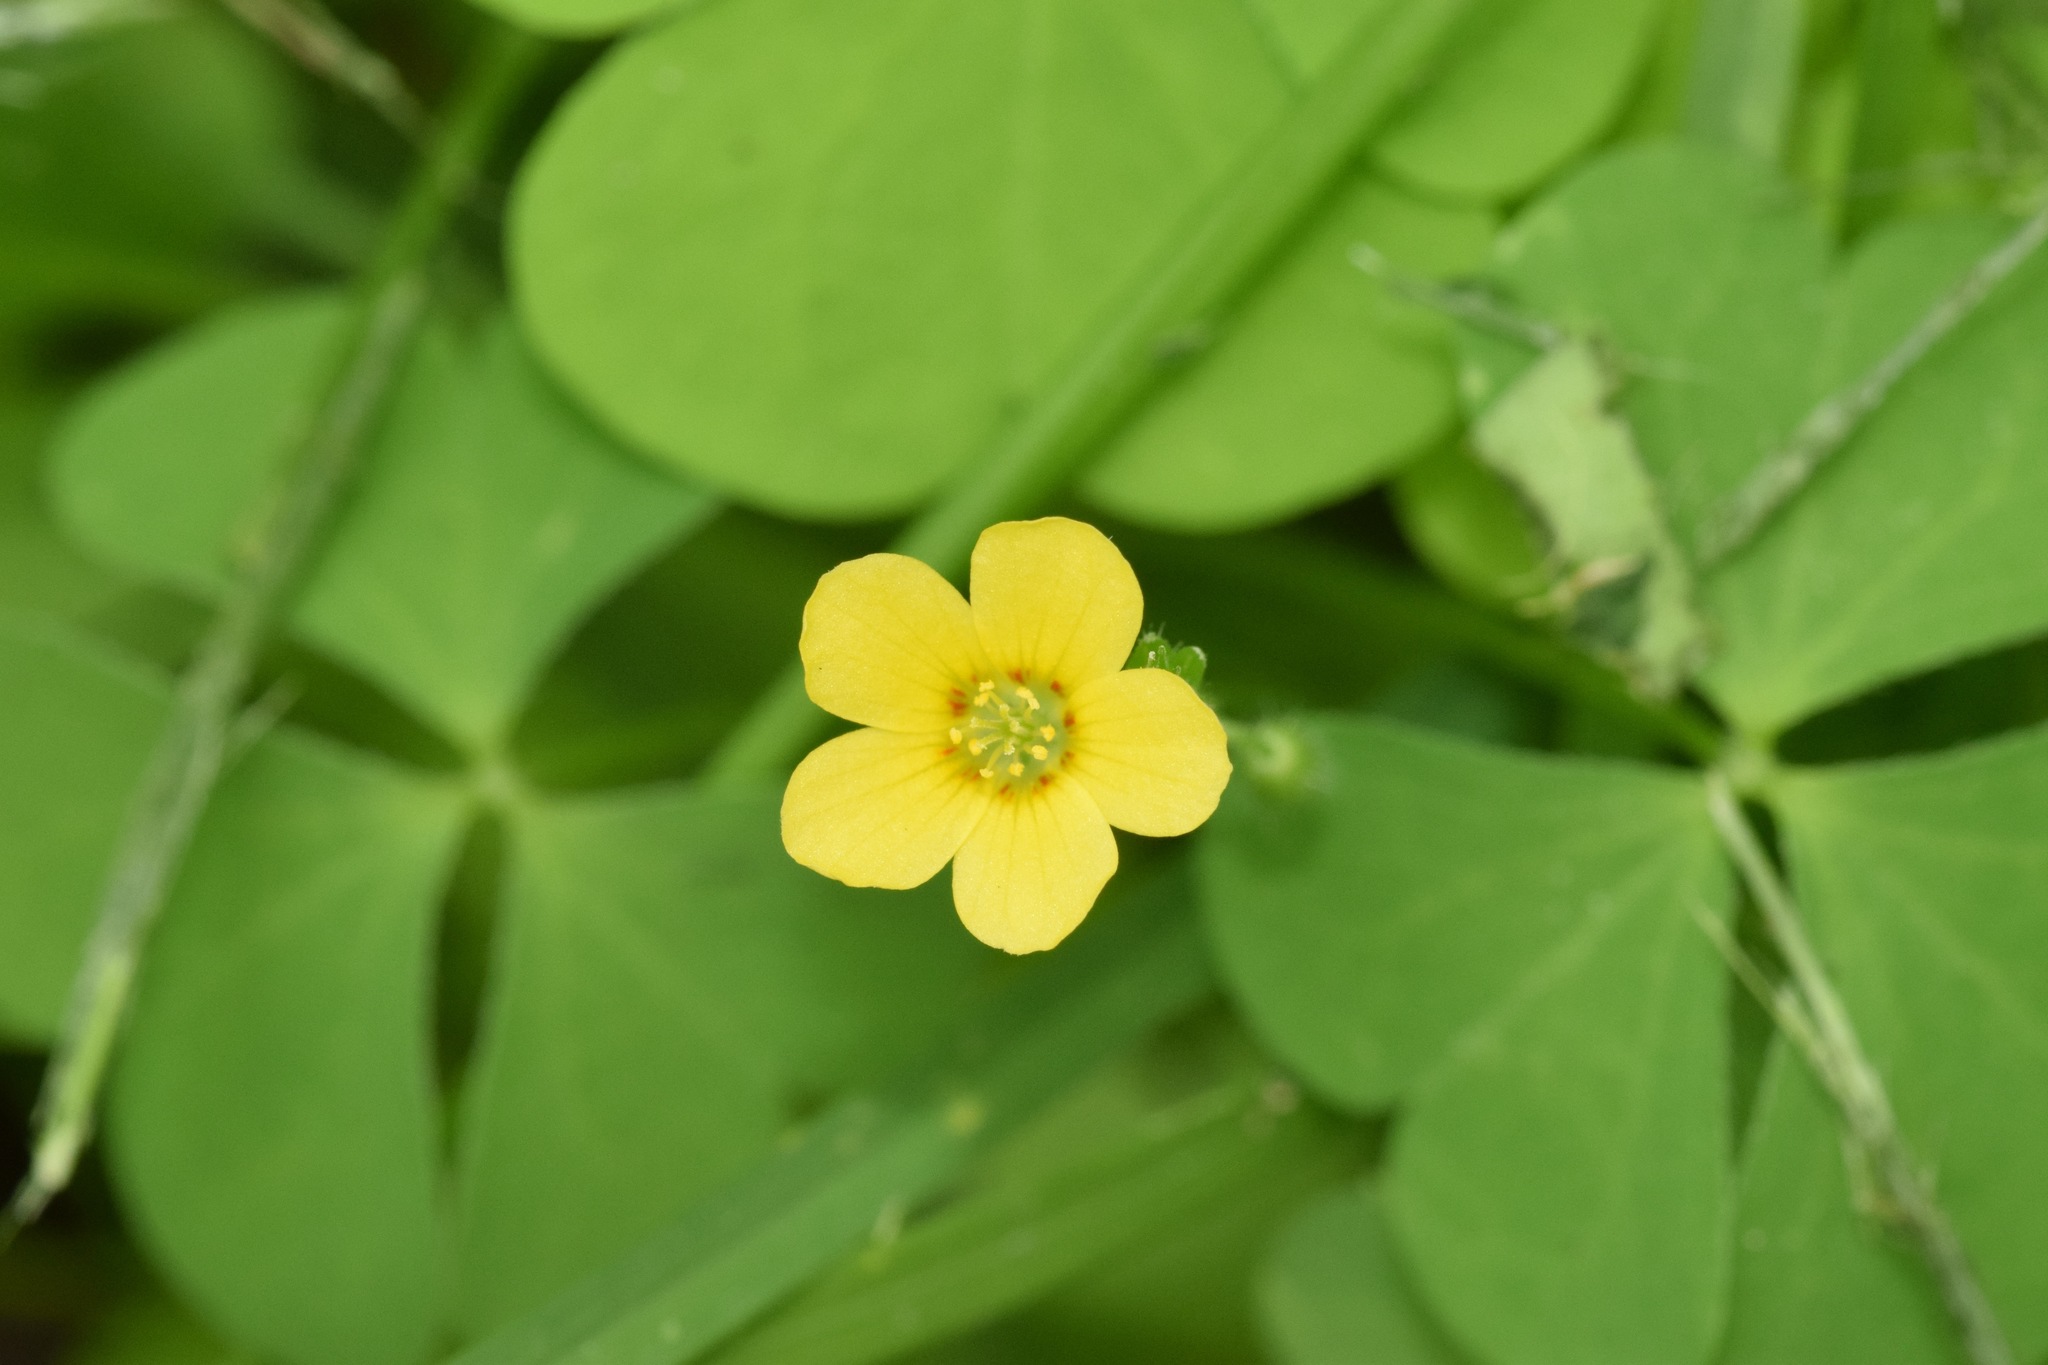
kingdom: Plantae
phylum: Tracheophyta
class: Magnoliopsida
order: Oxalidales
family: Oxalidaceae
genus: Oxalis
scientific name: Oxalis stricta
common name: Upright yellow-sorrel
